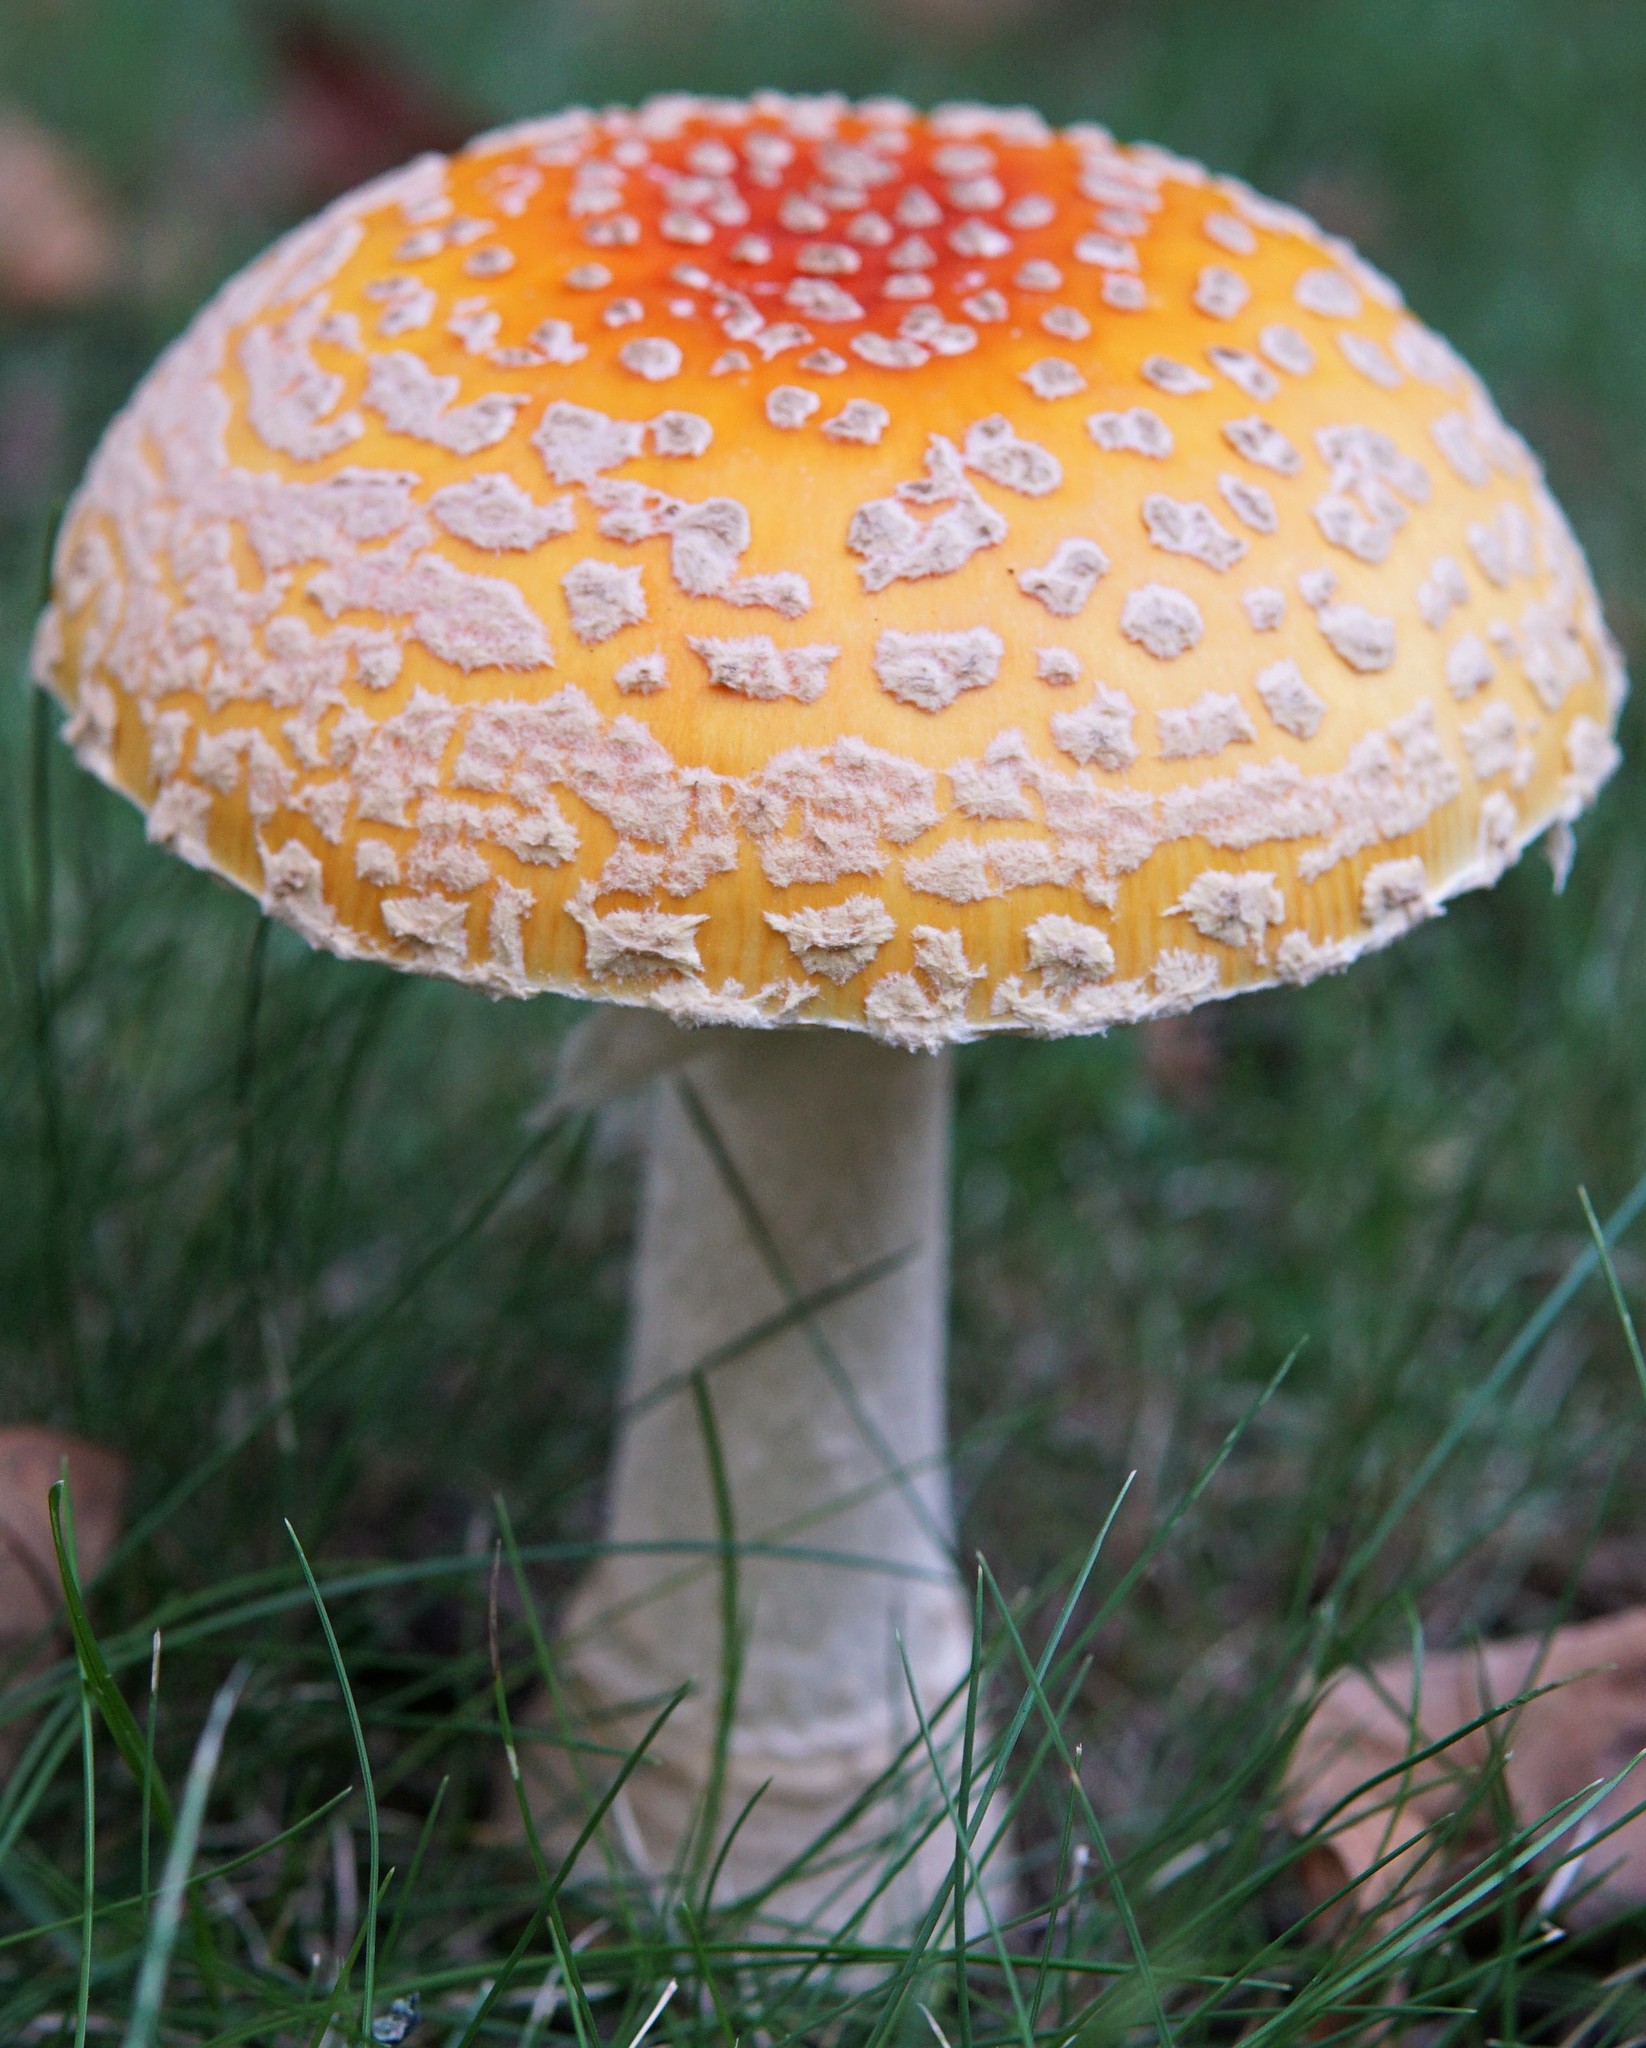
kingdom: Fungi
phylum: Basidiomycota
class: Agaricomycetes
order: Agaricales
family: Amanitaceae
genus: Amanita
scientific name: Amanita muscaria
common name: Fly agaric
